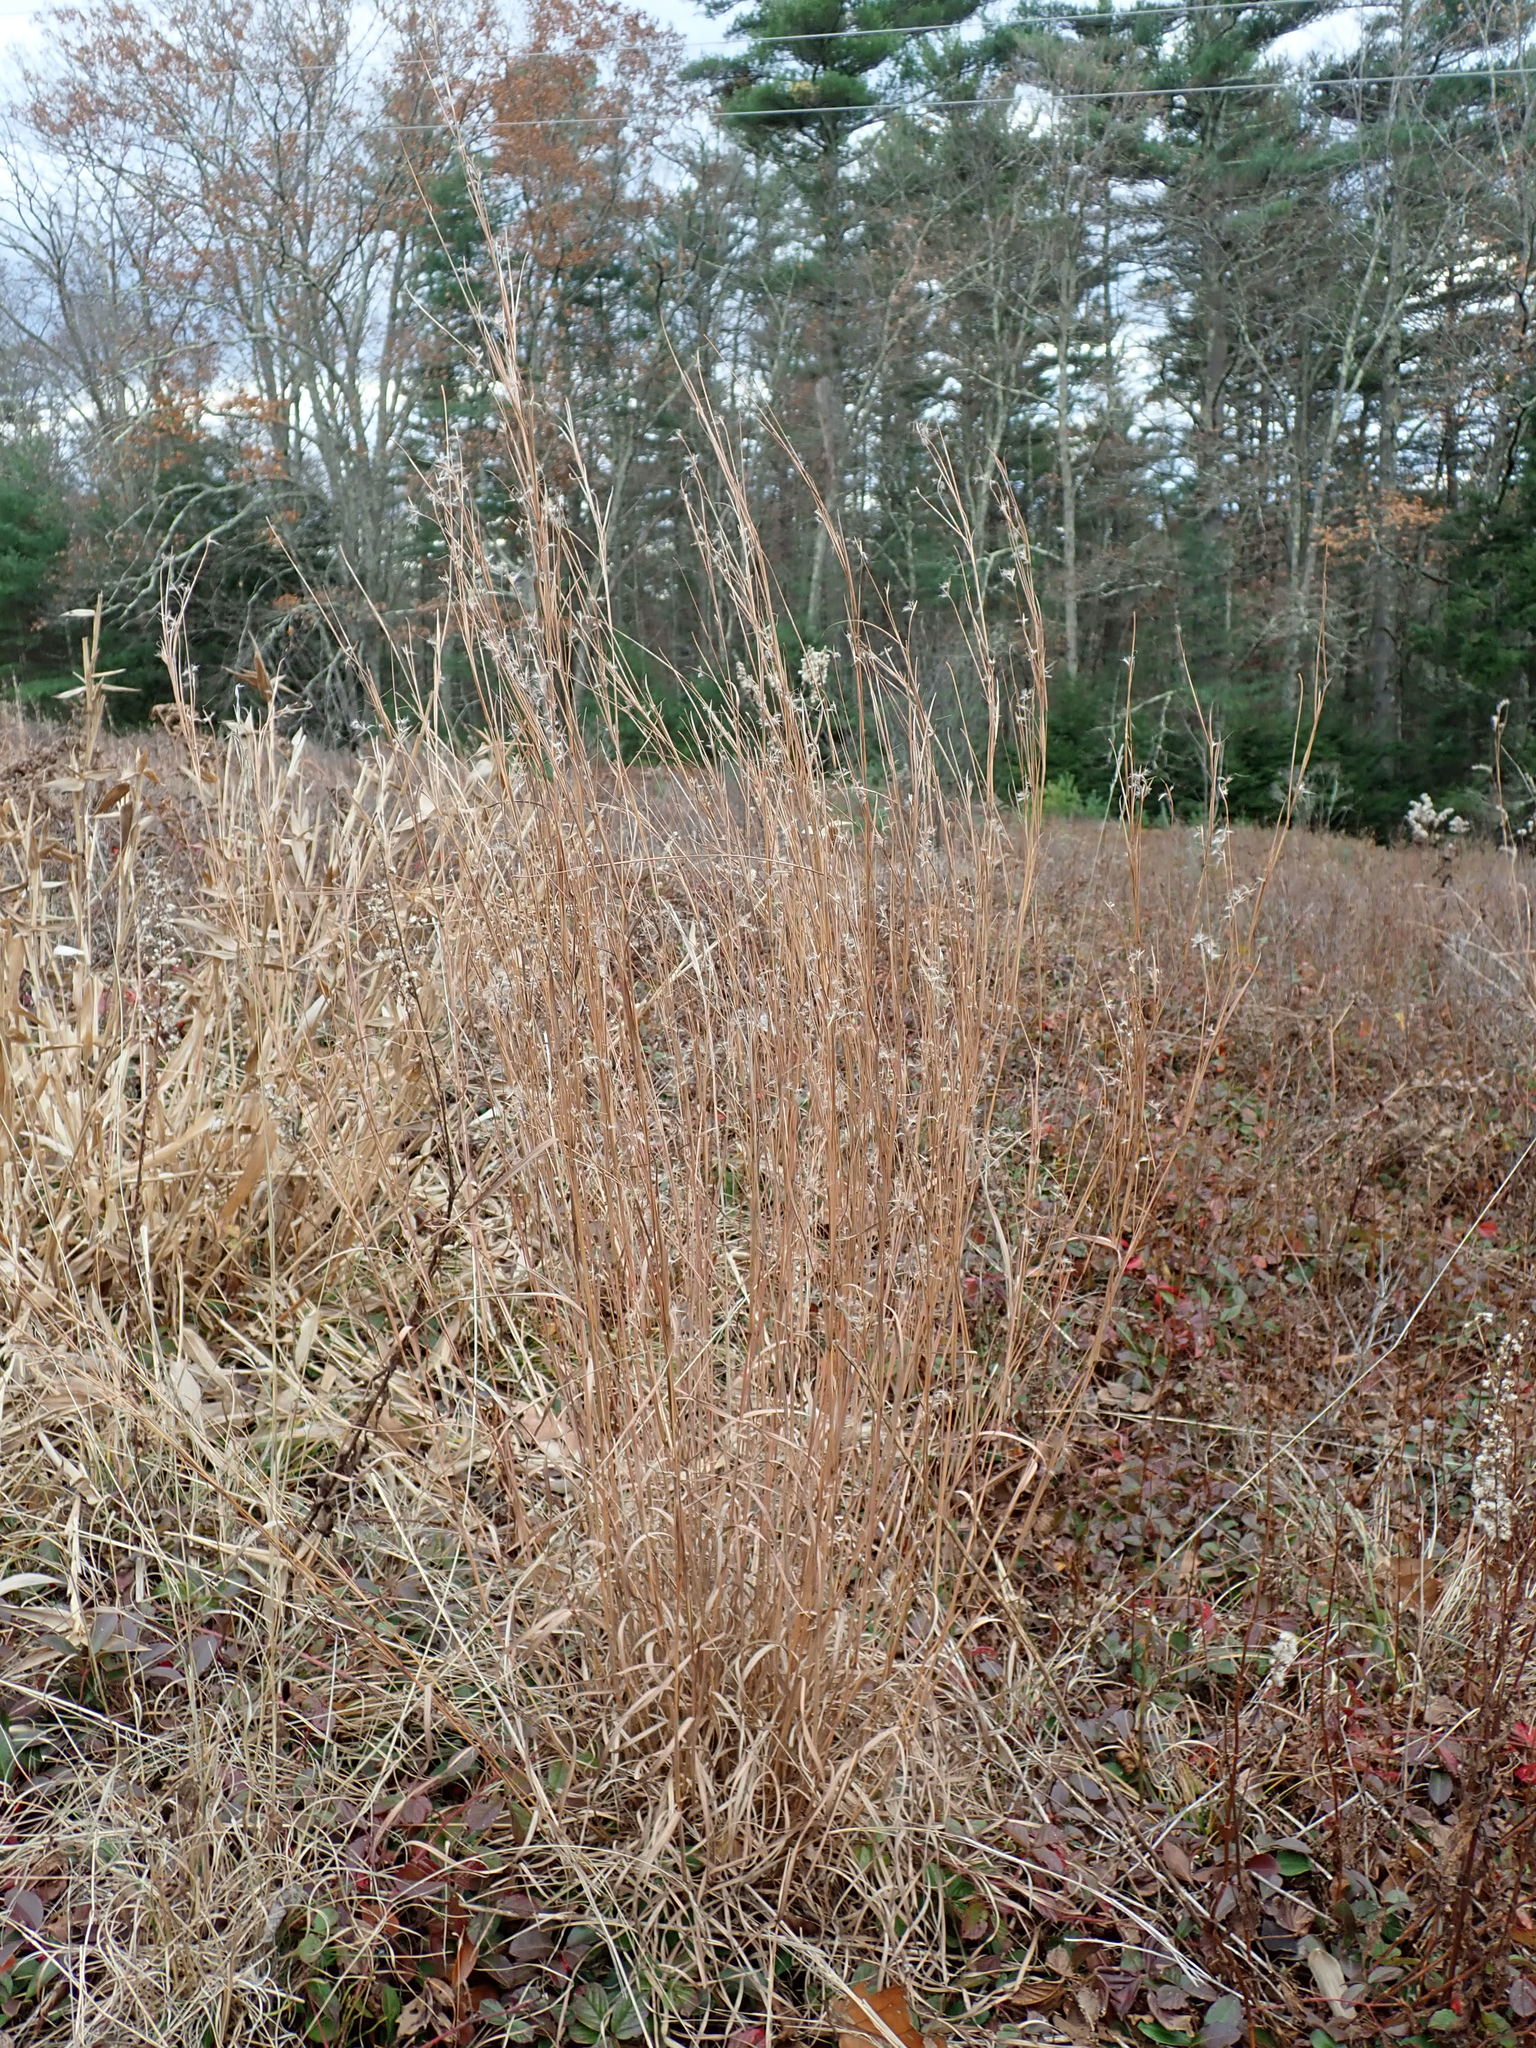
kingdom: Plantae
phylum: Tracheophyta
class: Liliopsida
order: Poales
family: Poaceae
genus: Schizachyrium
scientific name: Schizachyrium scoparium
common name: Little bluestem
